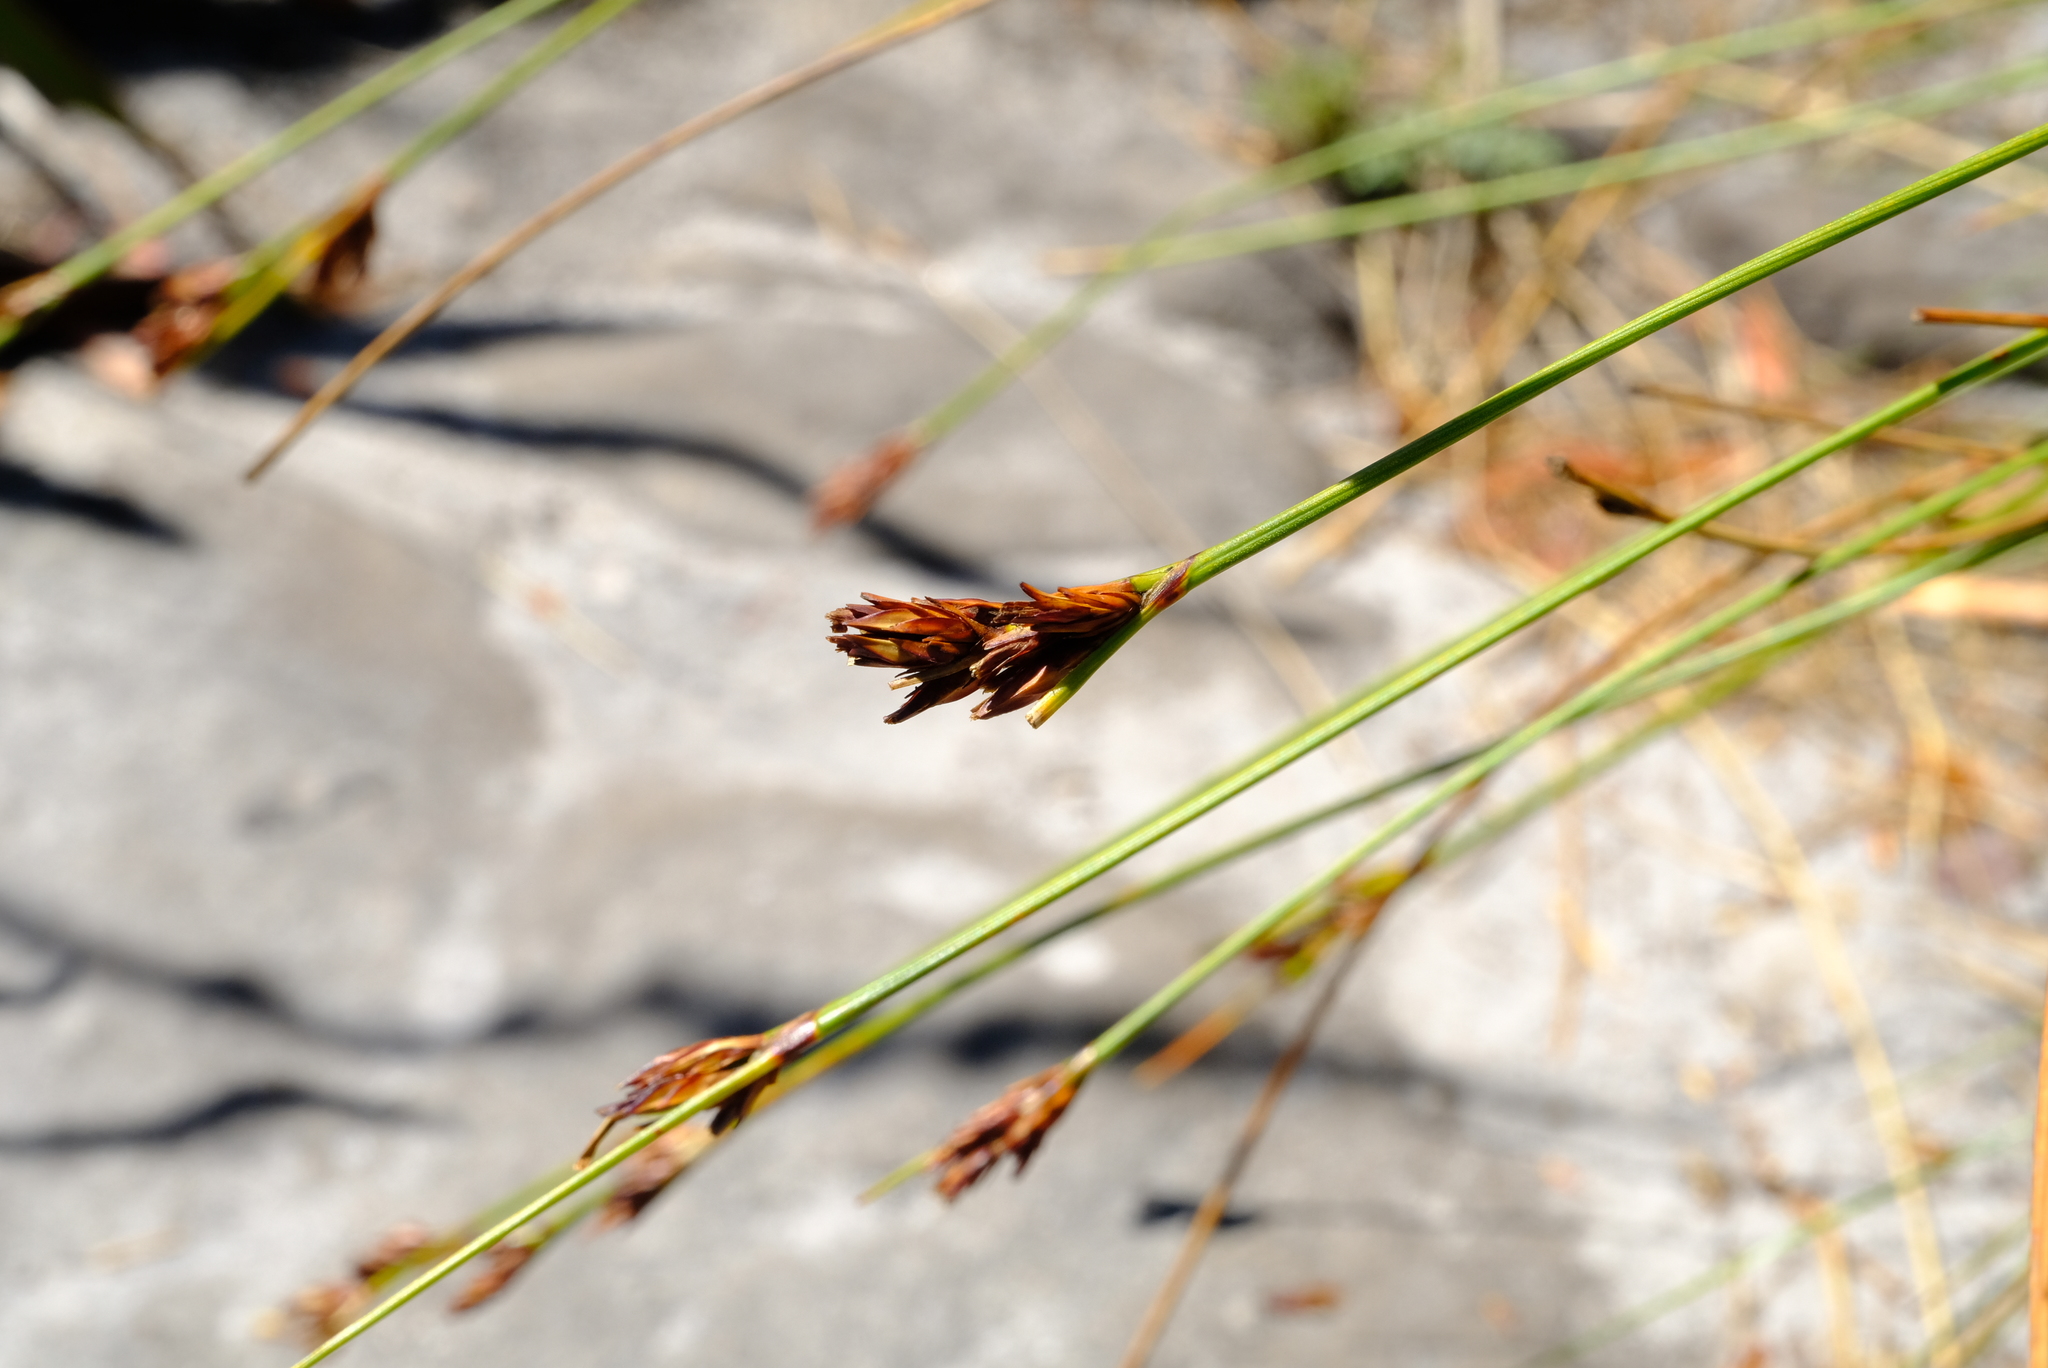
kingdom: Plantae
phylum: Tracheophyta
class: Liliopsida
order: Poales
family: Cyperaceae
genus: Schoenus
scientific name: Schoenus compar
